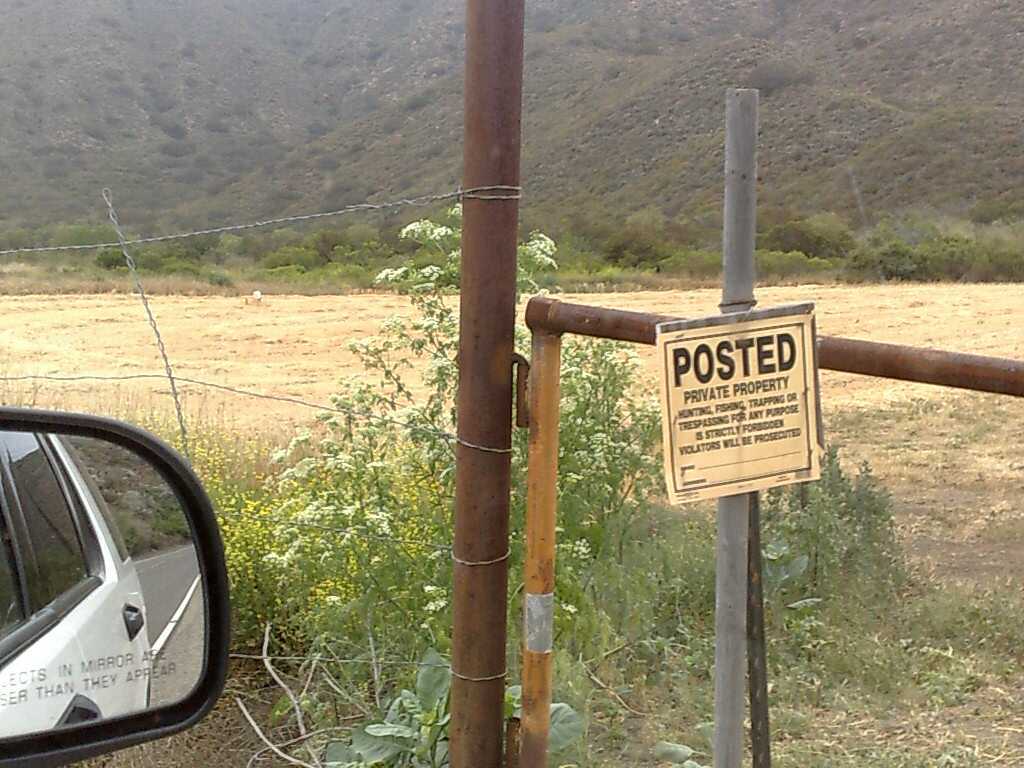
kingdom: Plantae
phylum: Tracheophyta
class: Magnoliopsida
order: Apiales
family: Apiaceae
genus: Conium
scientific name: Conium maculatum
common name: Hemlock
